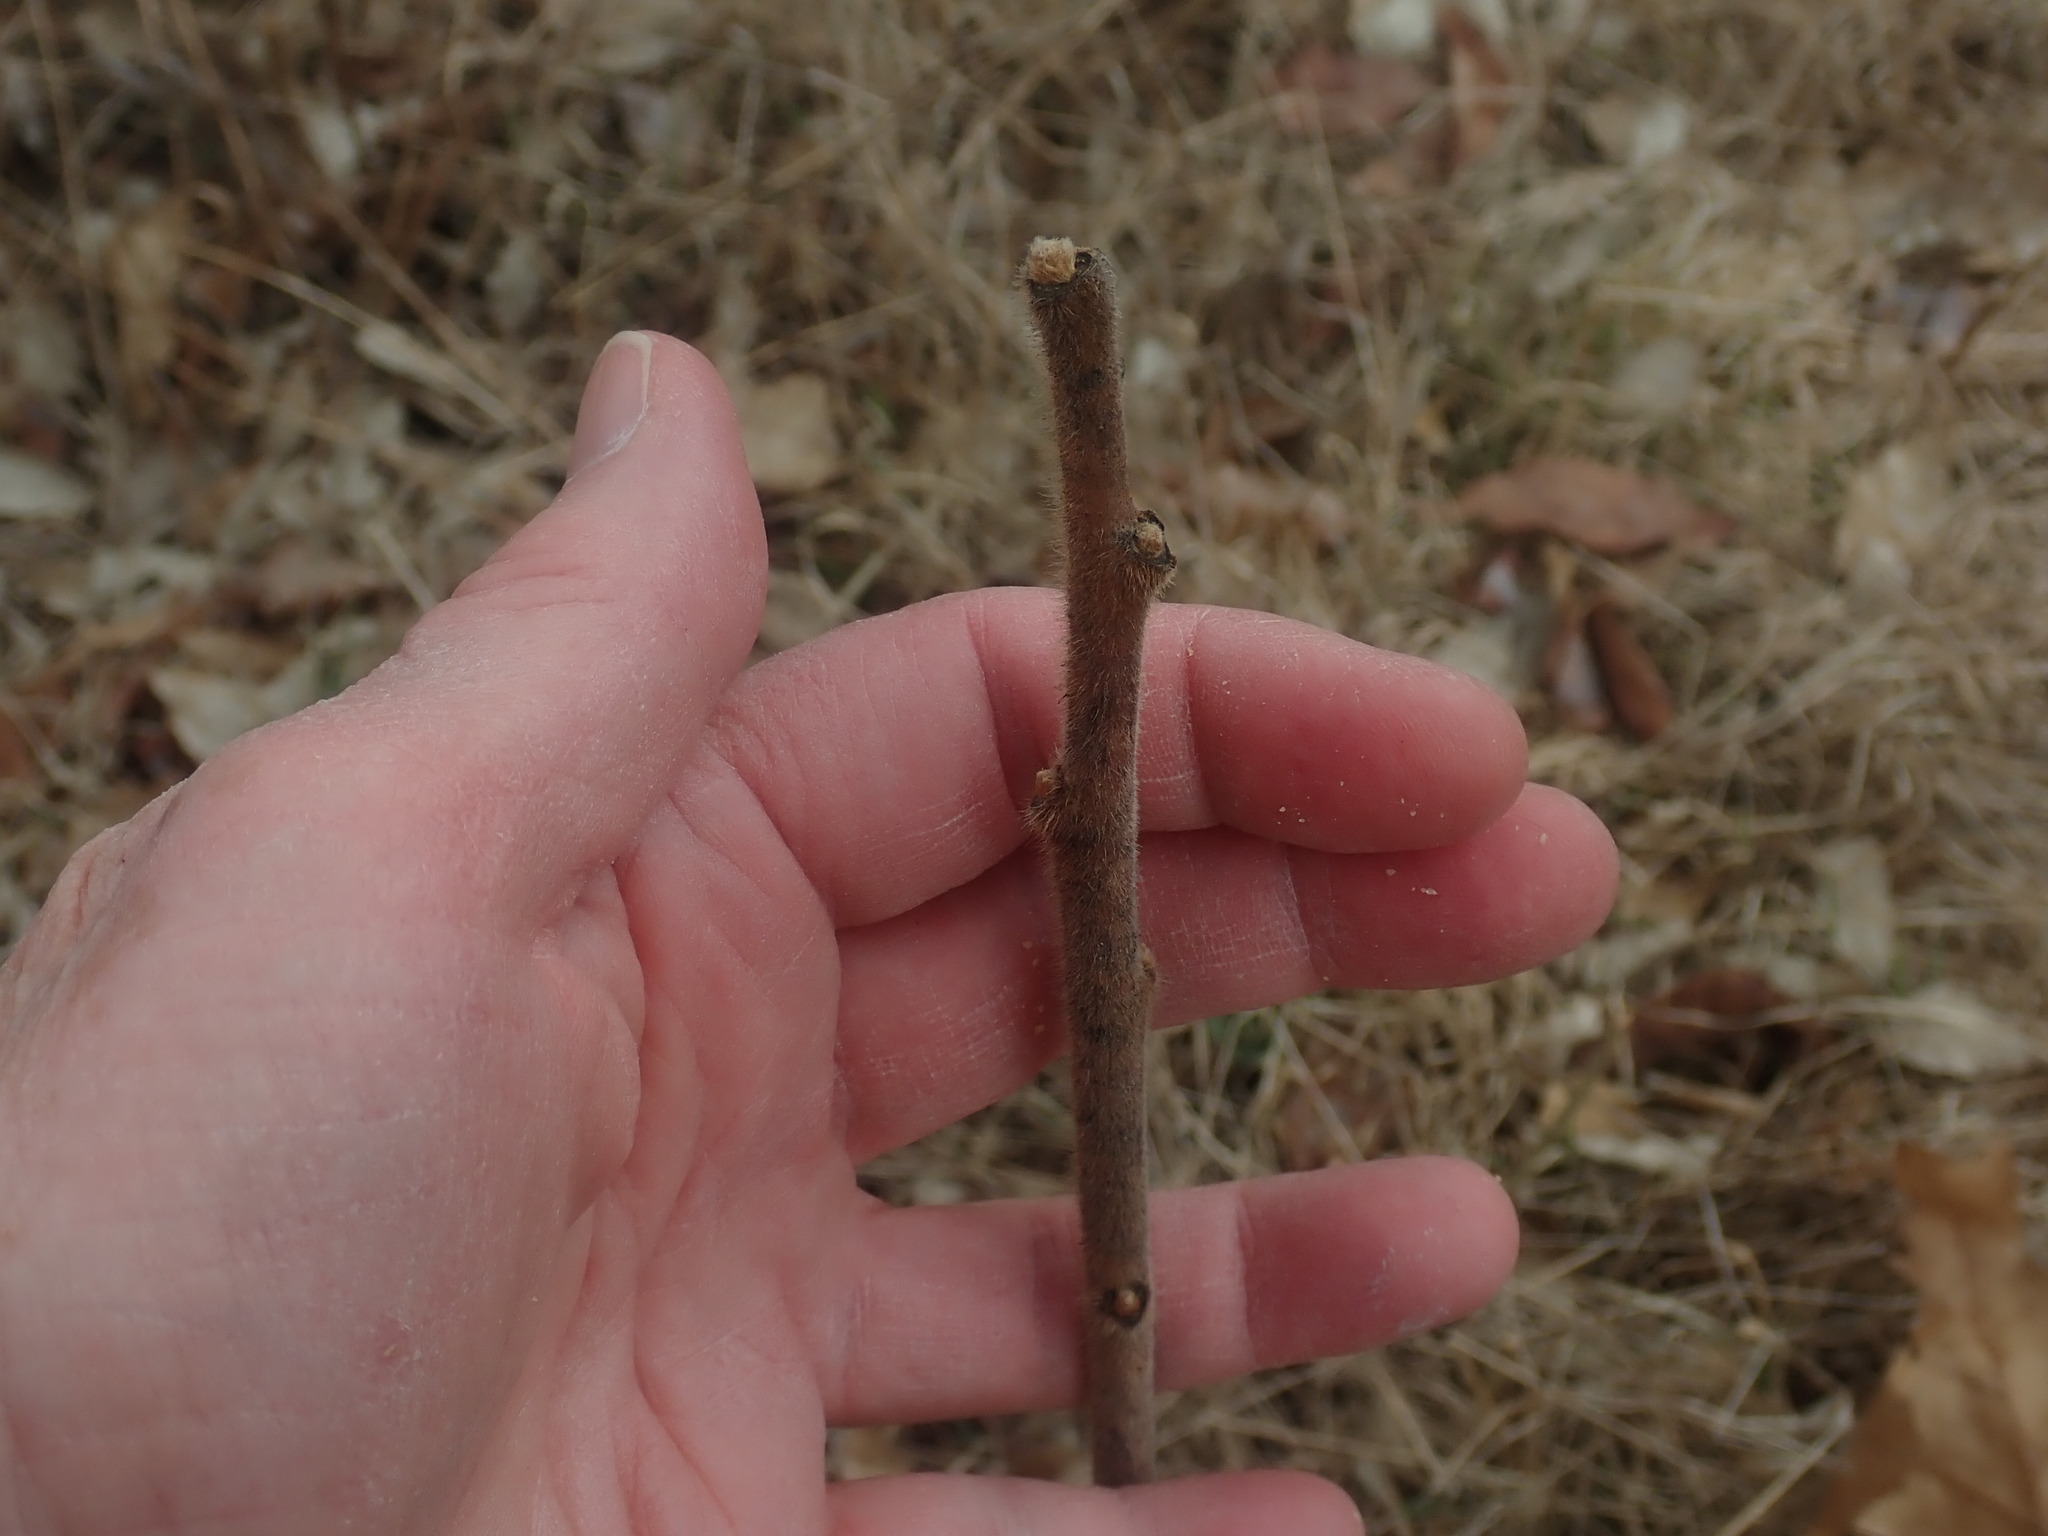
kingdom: Plantae
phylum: Tracheophyta
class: Magnoliopsida
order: Sapindales
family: Anacardiaceae
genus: Rhus
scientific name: Rhus typhina
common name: Staghorn sumac
